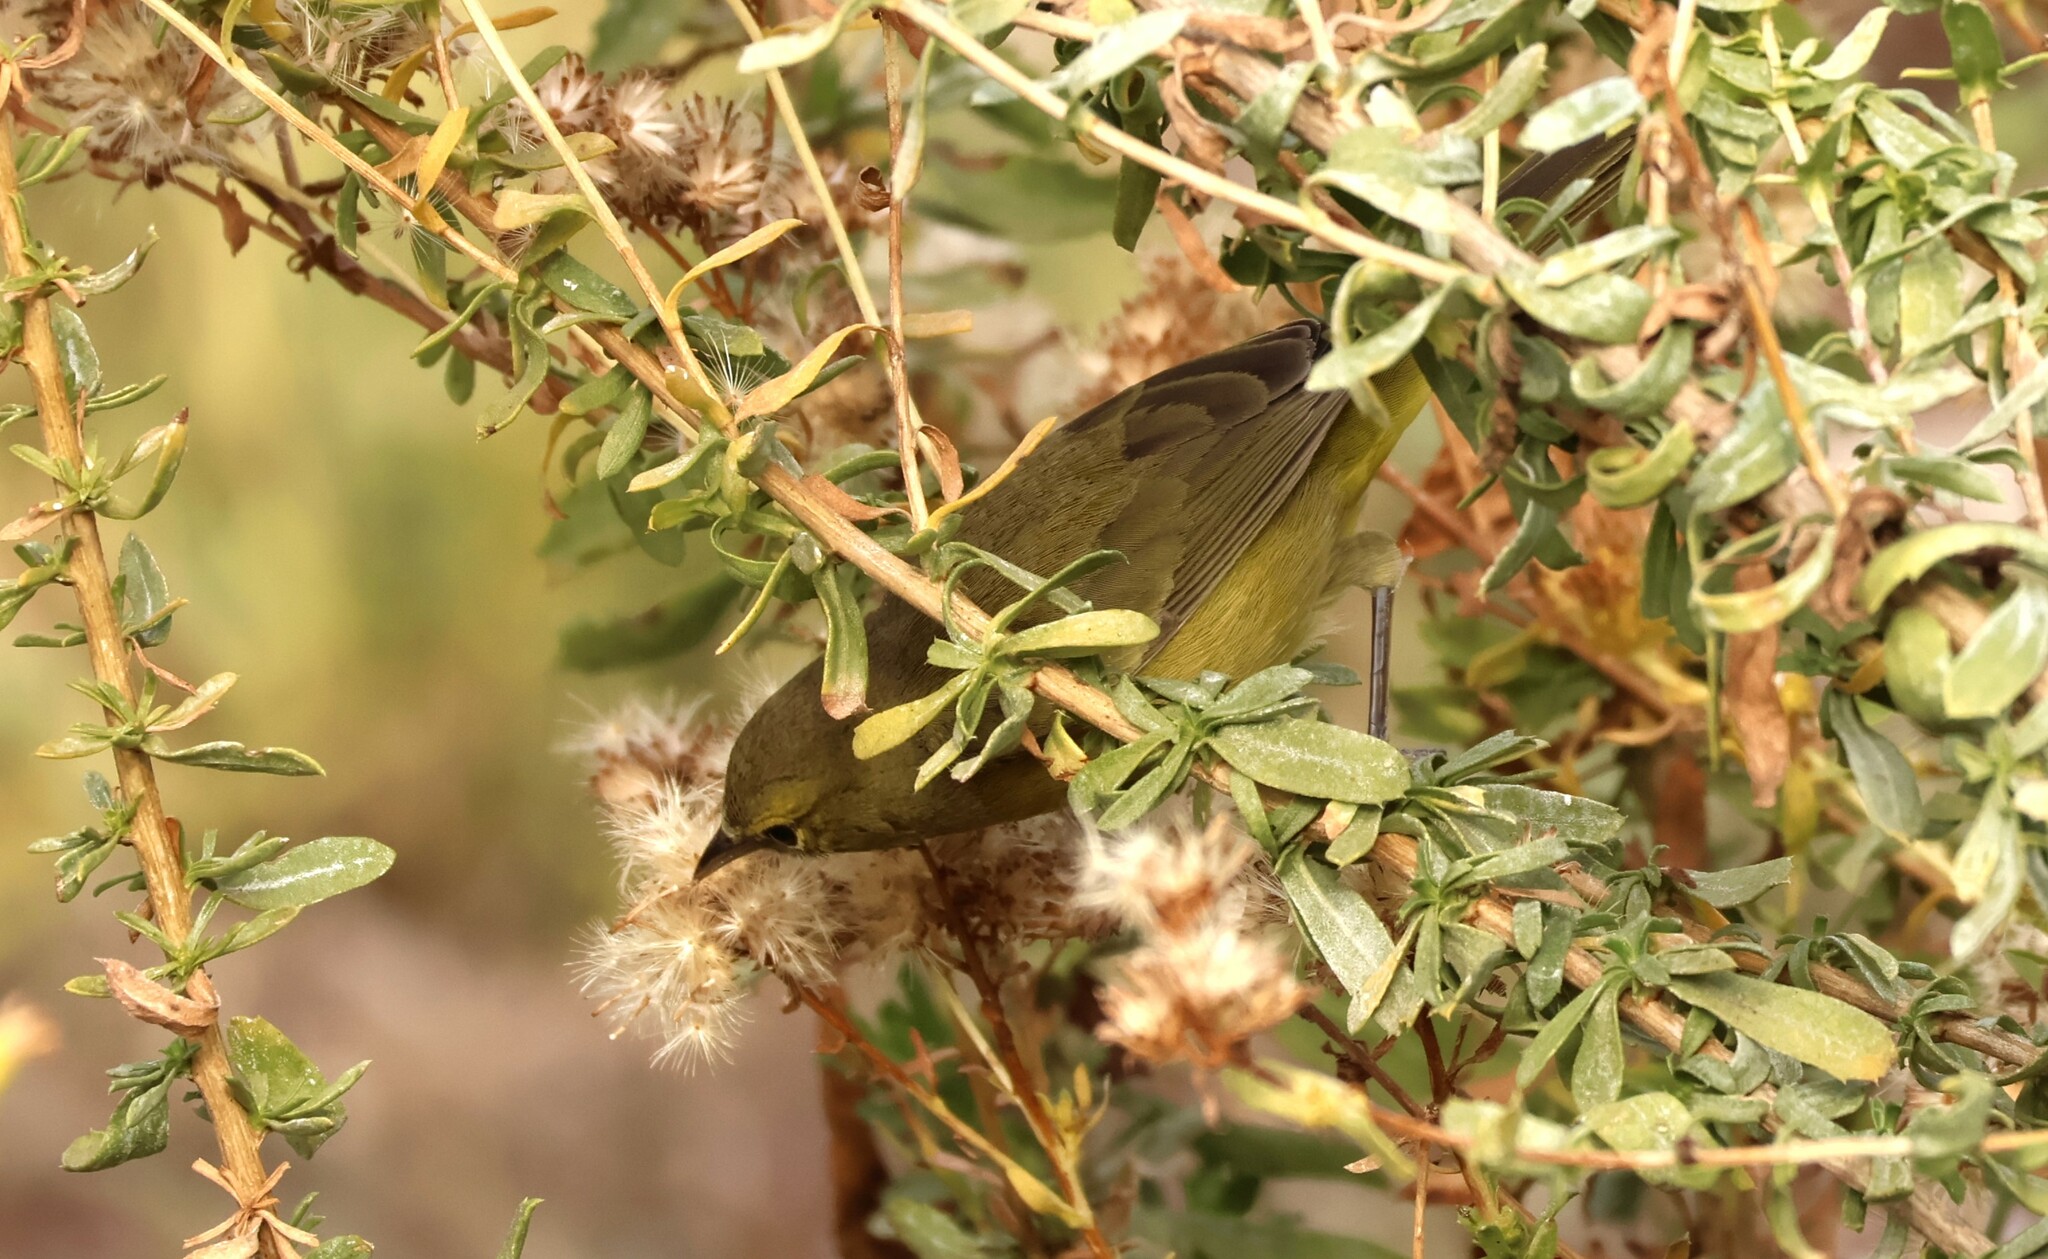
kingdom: Animalia
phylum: Chordata
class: Aves
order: Passeriformes
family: Parulidae
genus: Leiothlypis
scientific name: Leiothlypis celata
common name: Orange-crowned warbler
